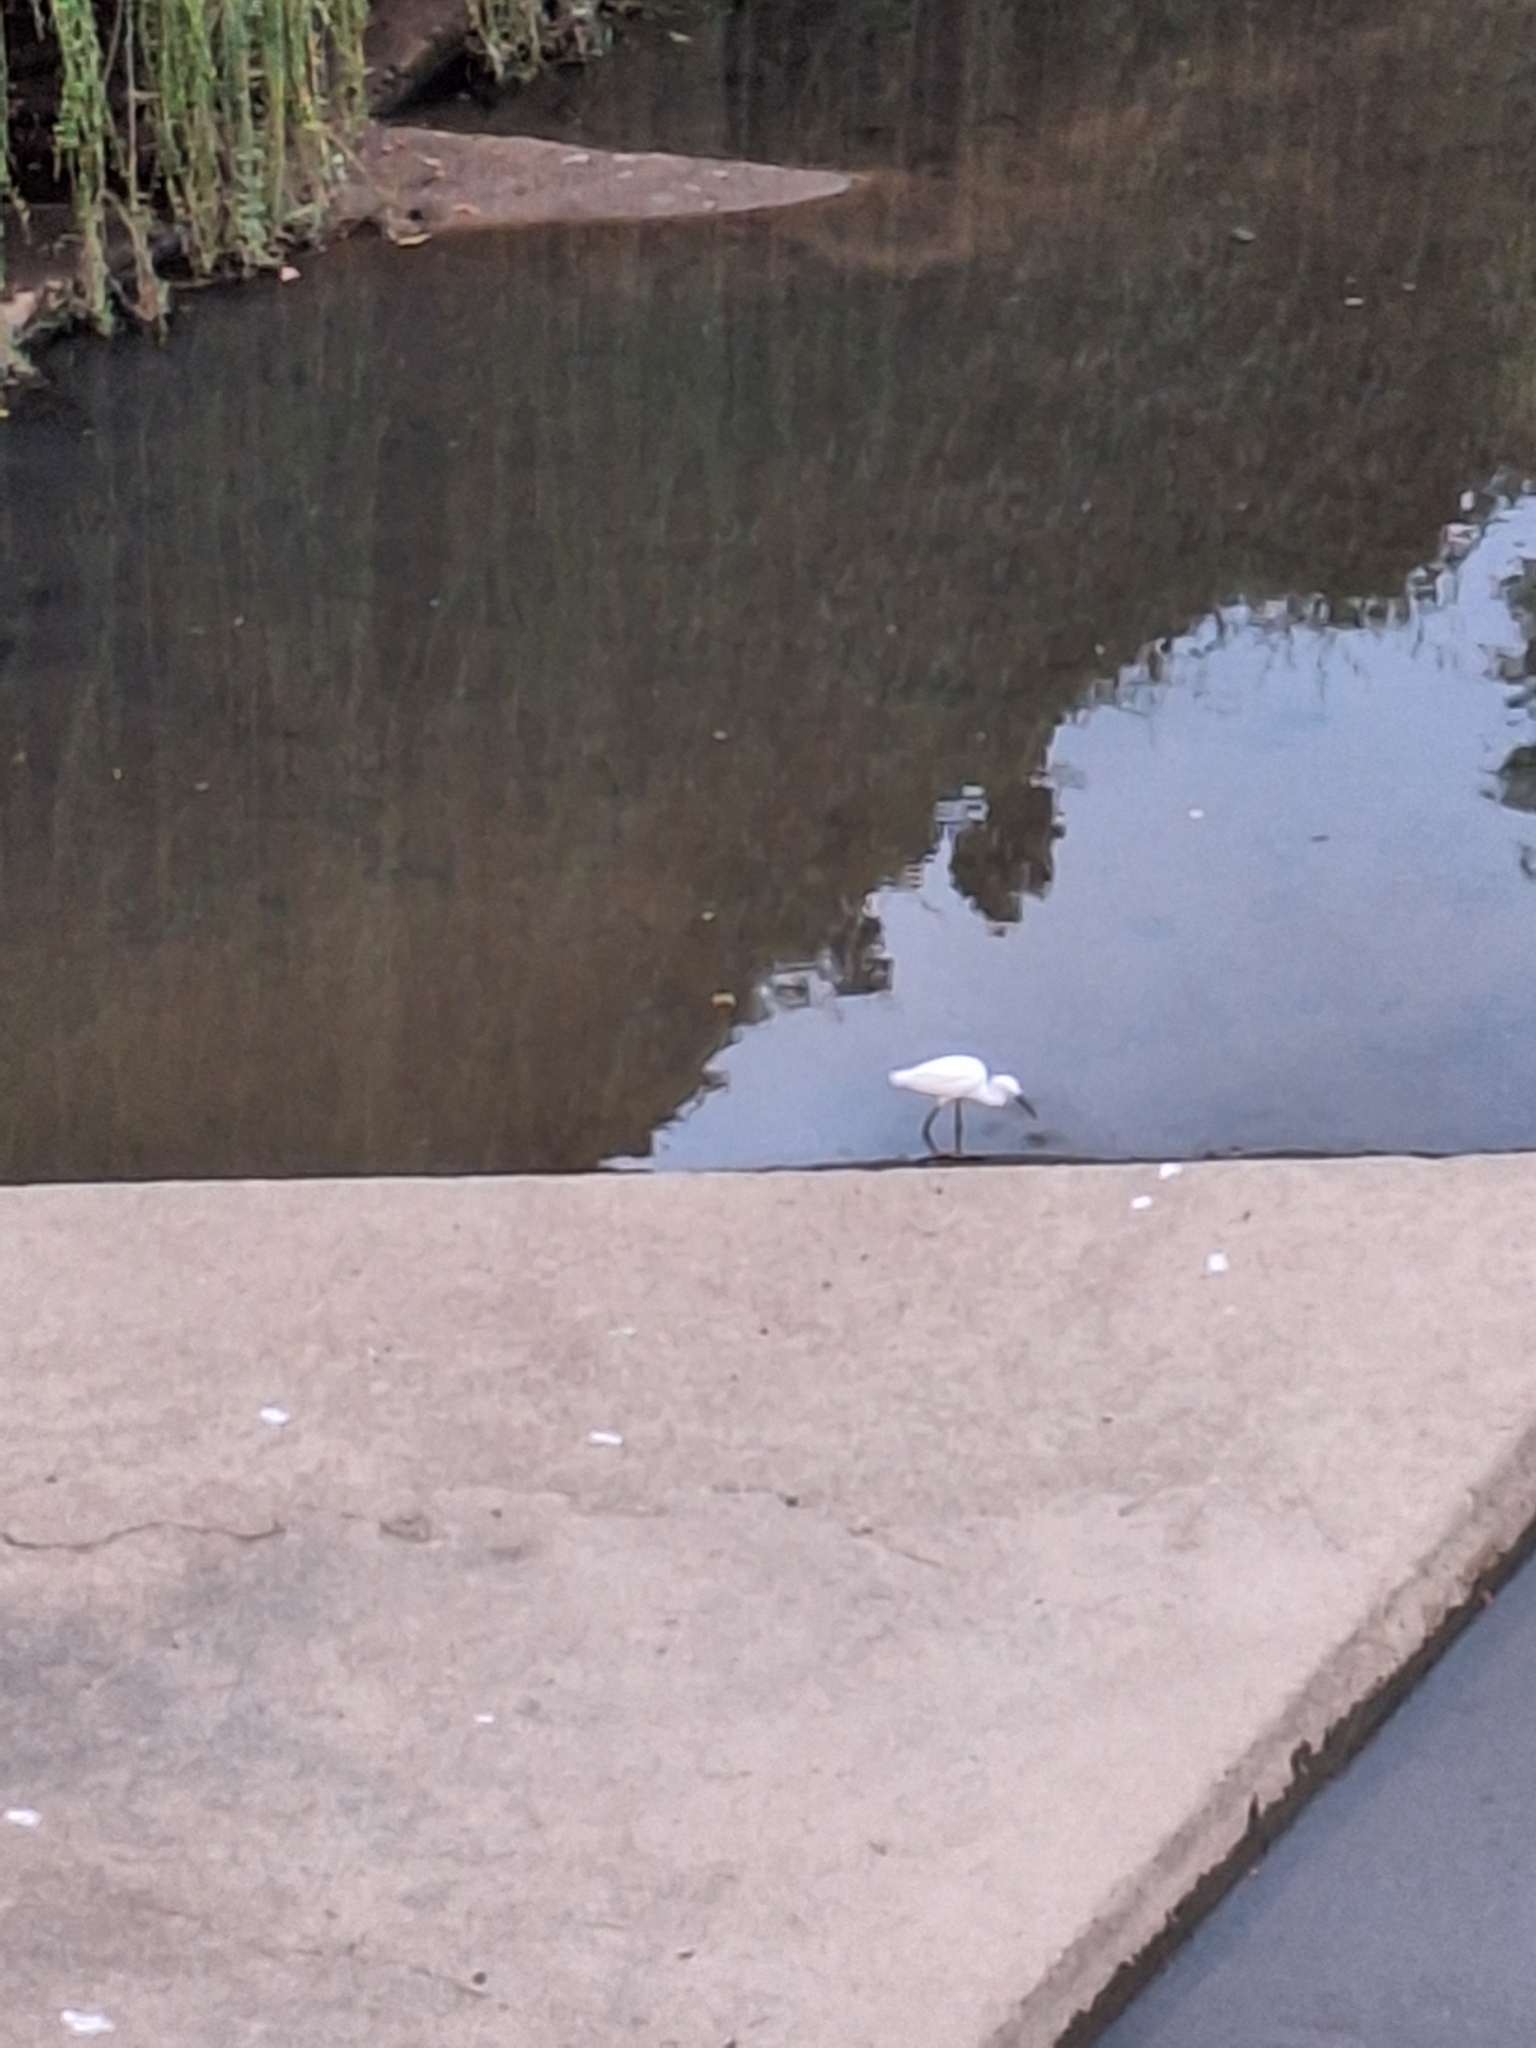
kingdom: Animalia
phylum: Chordata
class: Aves
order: Pelecaniformes
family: Ardeidae
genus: Egretta
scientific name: Egretta garzetta
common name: Little egret
